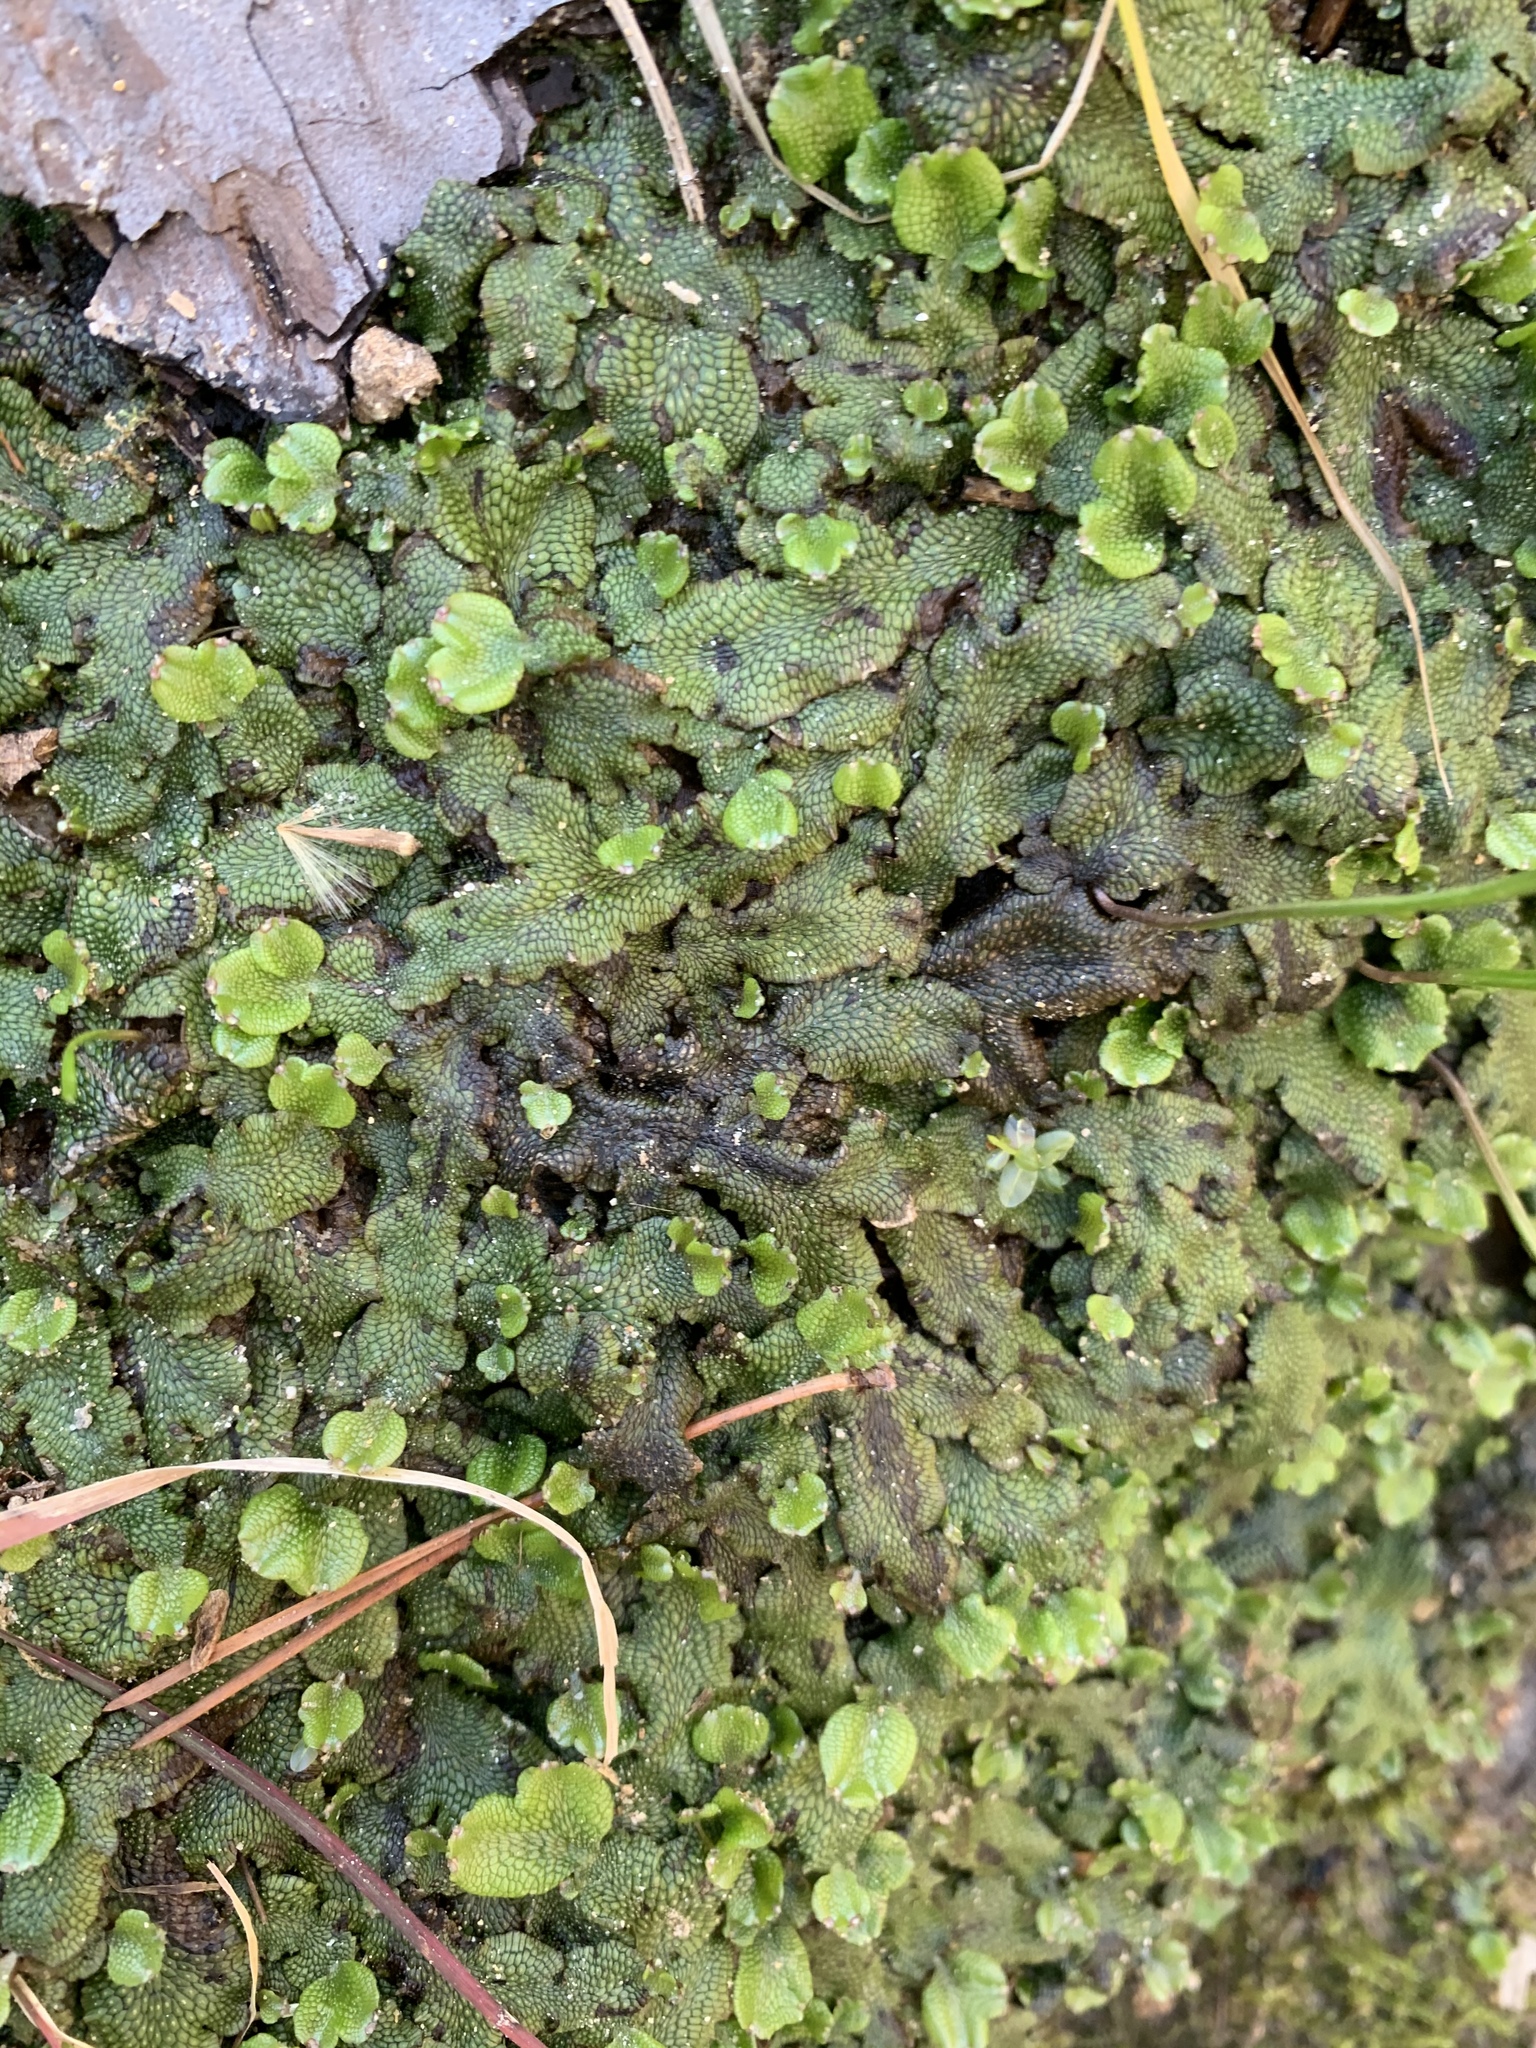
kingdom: Plantae
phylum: Marchantiophyta
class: Marchantiopsida
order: Marchantiales
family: Conocephalaceae
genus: Conocephalum
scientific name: Conocephalum salebrosum
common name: Cat-tongue liverwort
